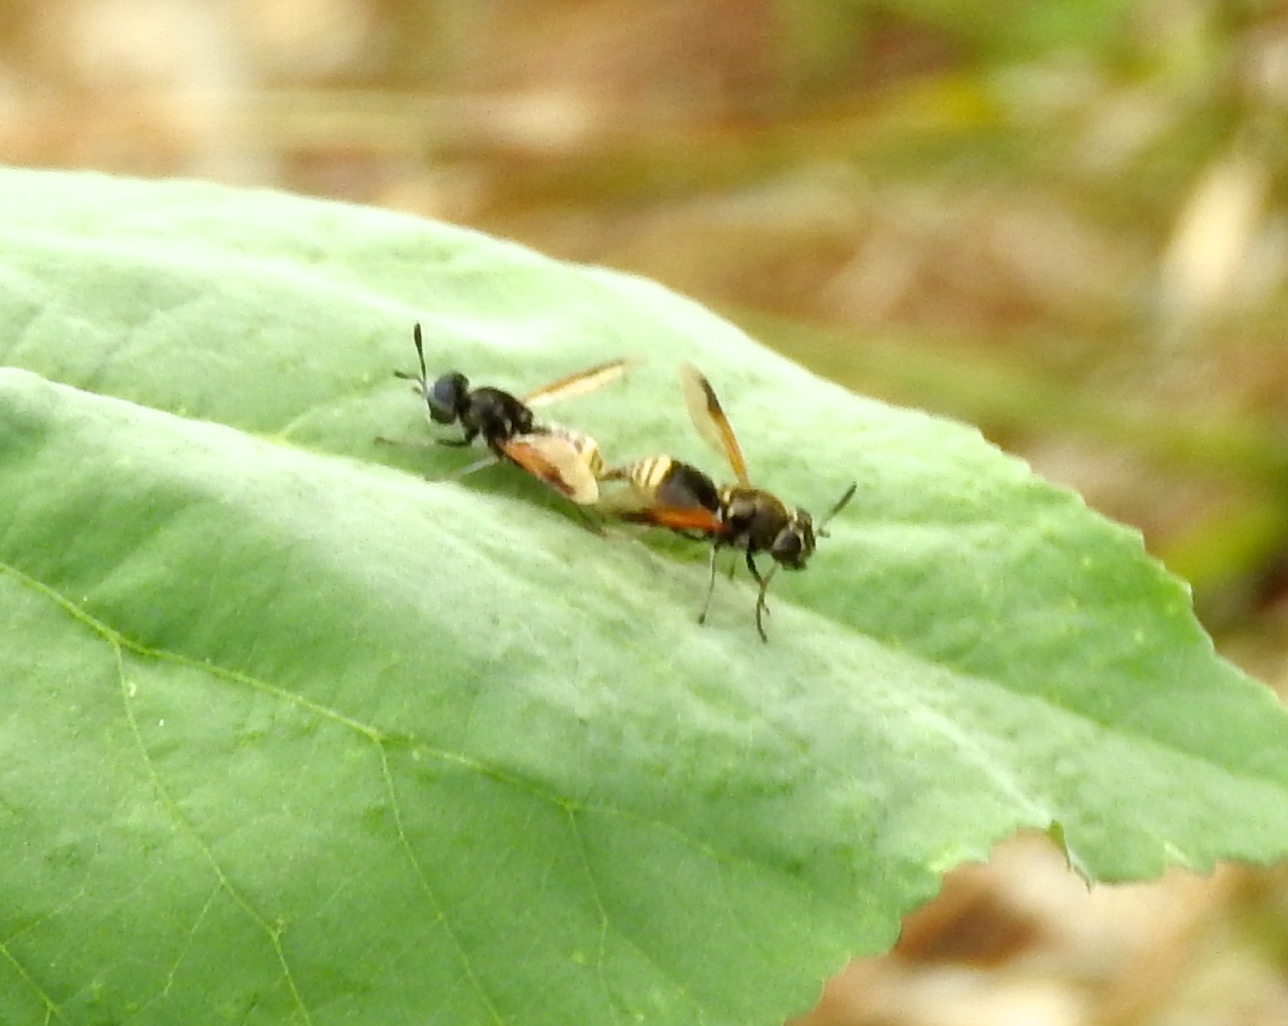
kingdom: Animalia
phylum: Arthropoda
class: Insecta
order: Diptera
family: Stratiomyidae
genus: Hoplitimyia
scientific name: Hoplitimyia
